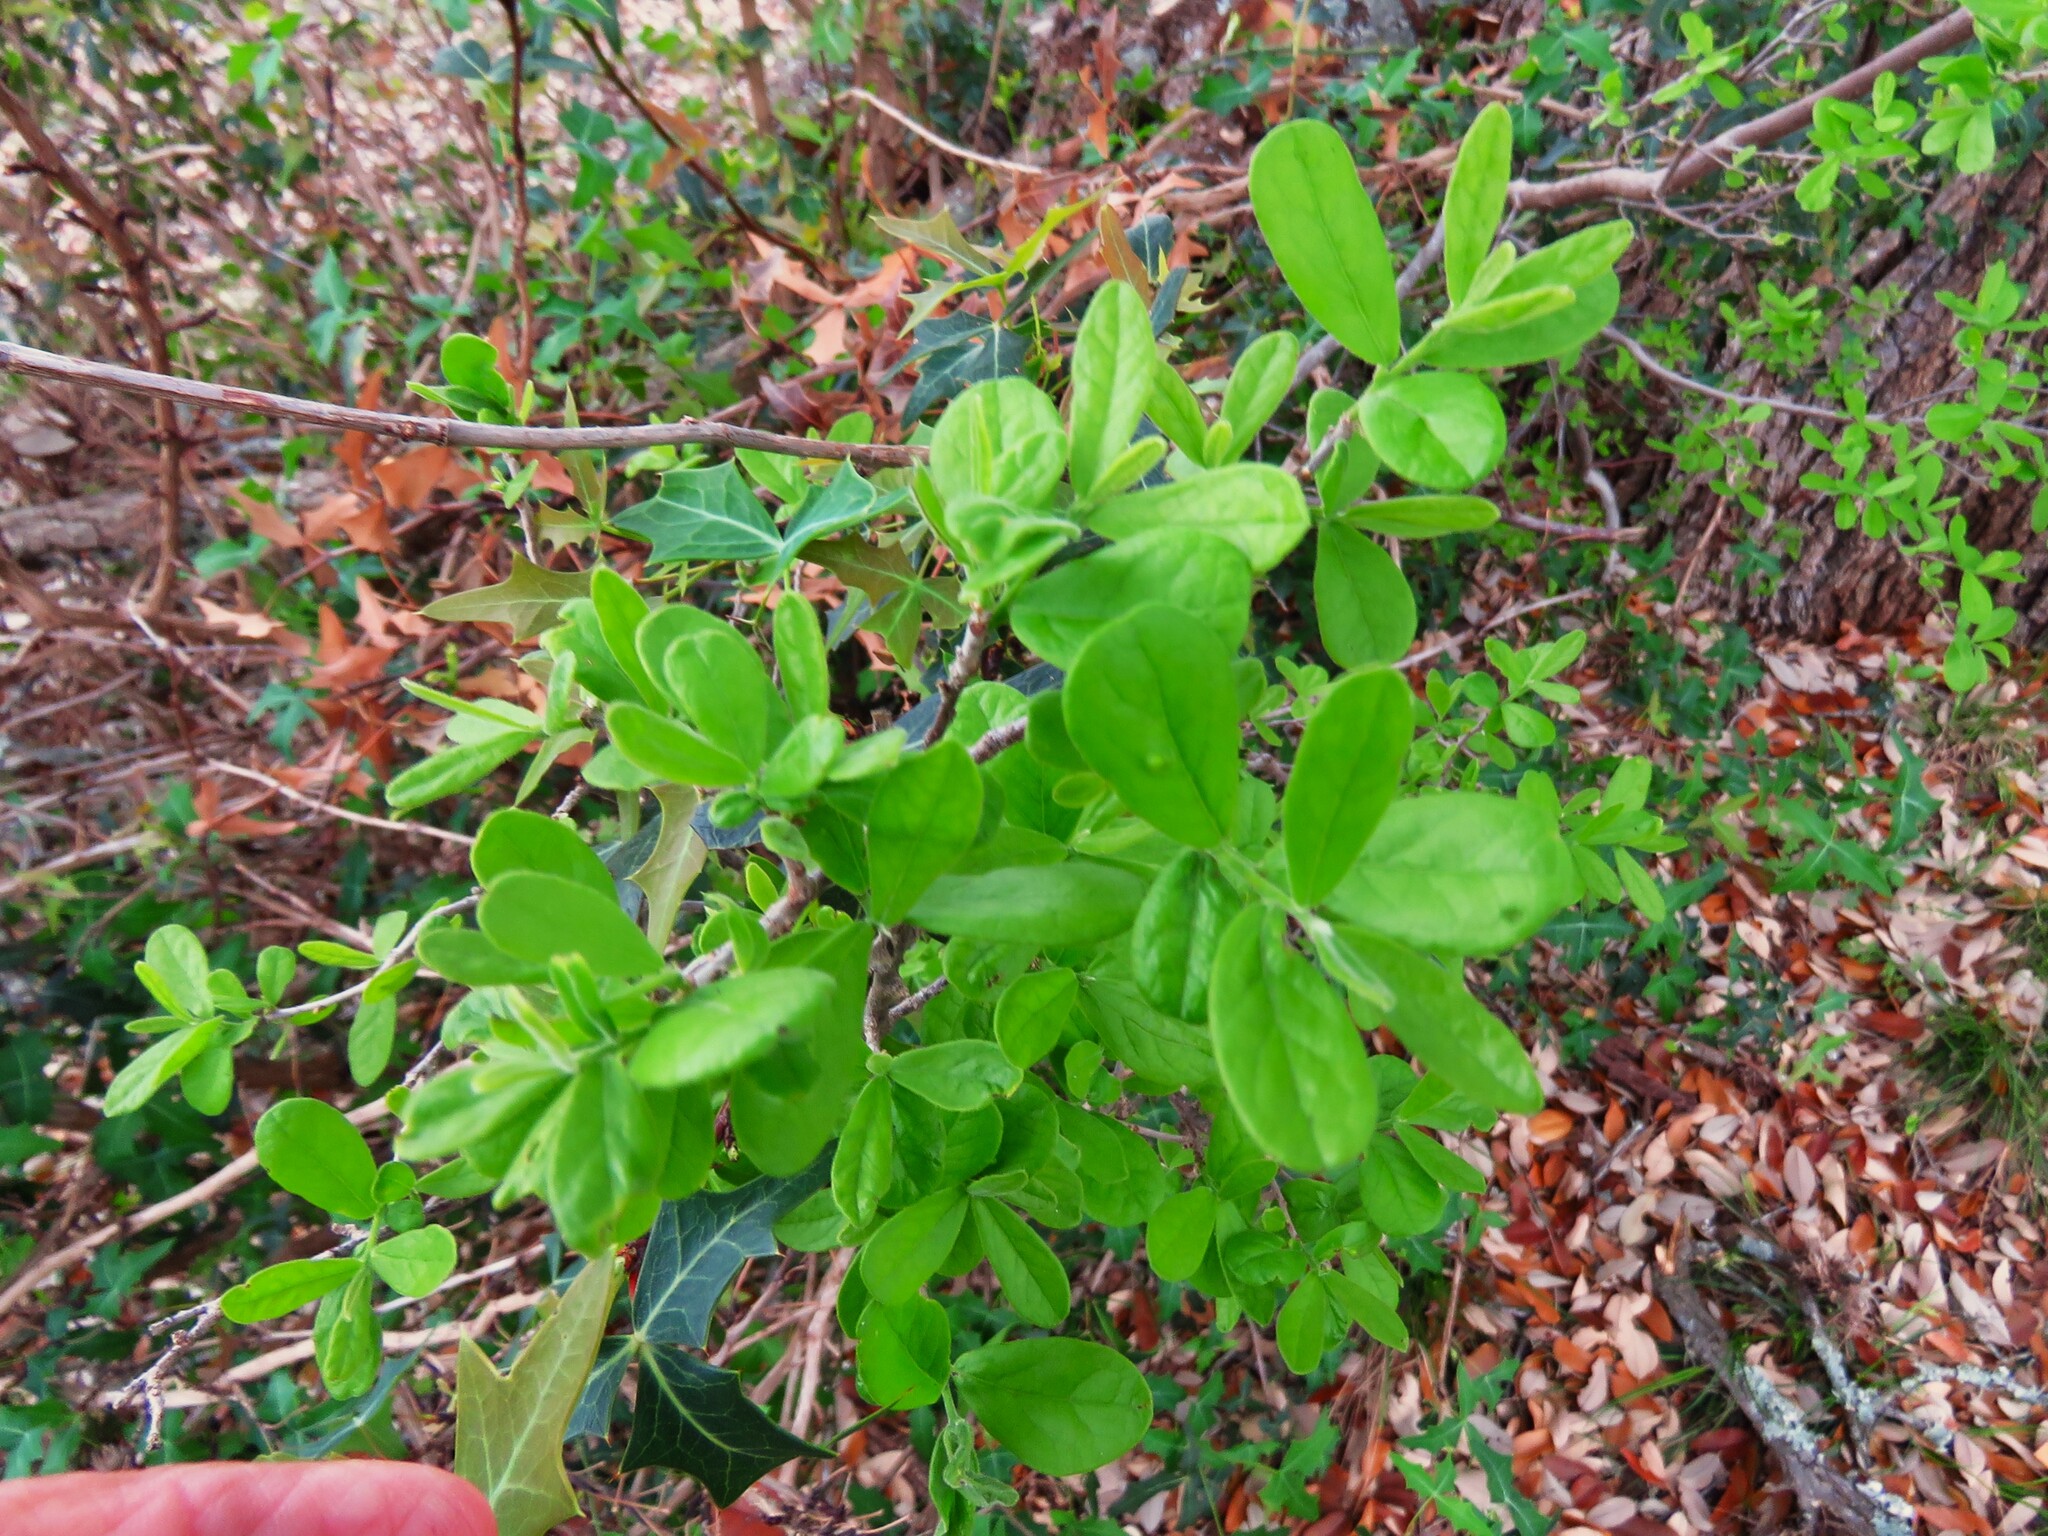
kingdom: Plantae
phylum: Tracheophyta
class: Magnoliopsida
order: Ericales
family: Ebenaceae
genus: Diospyros
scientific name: Diospyros texana
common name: Texas persimmon
